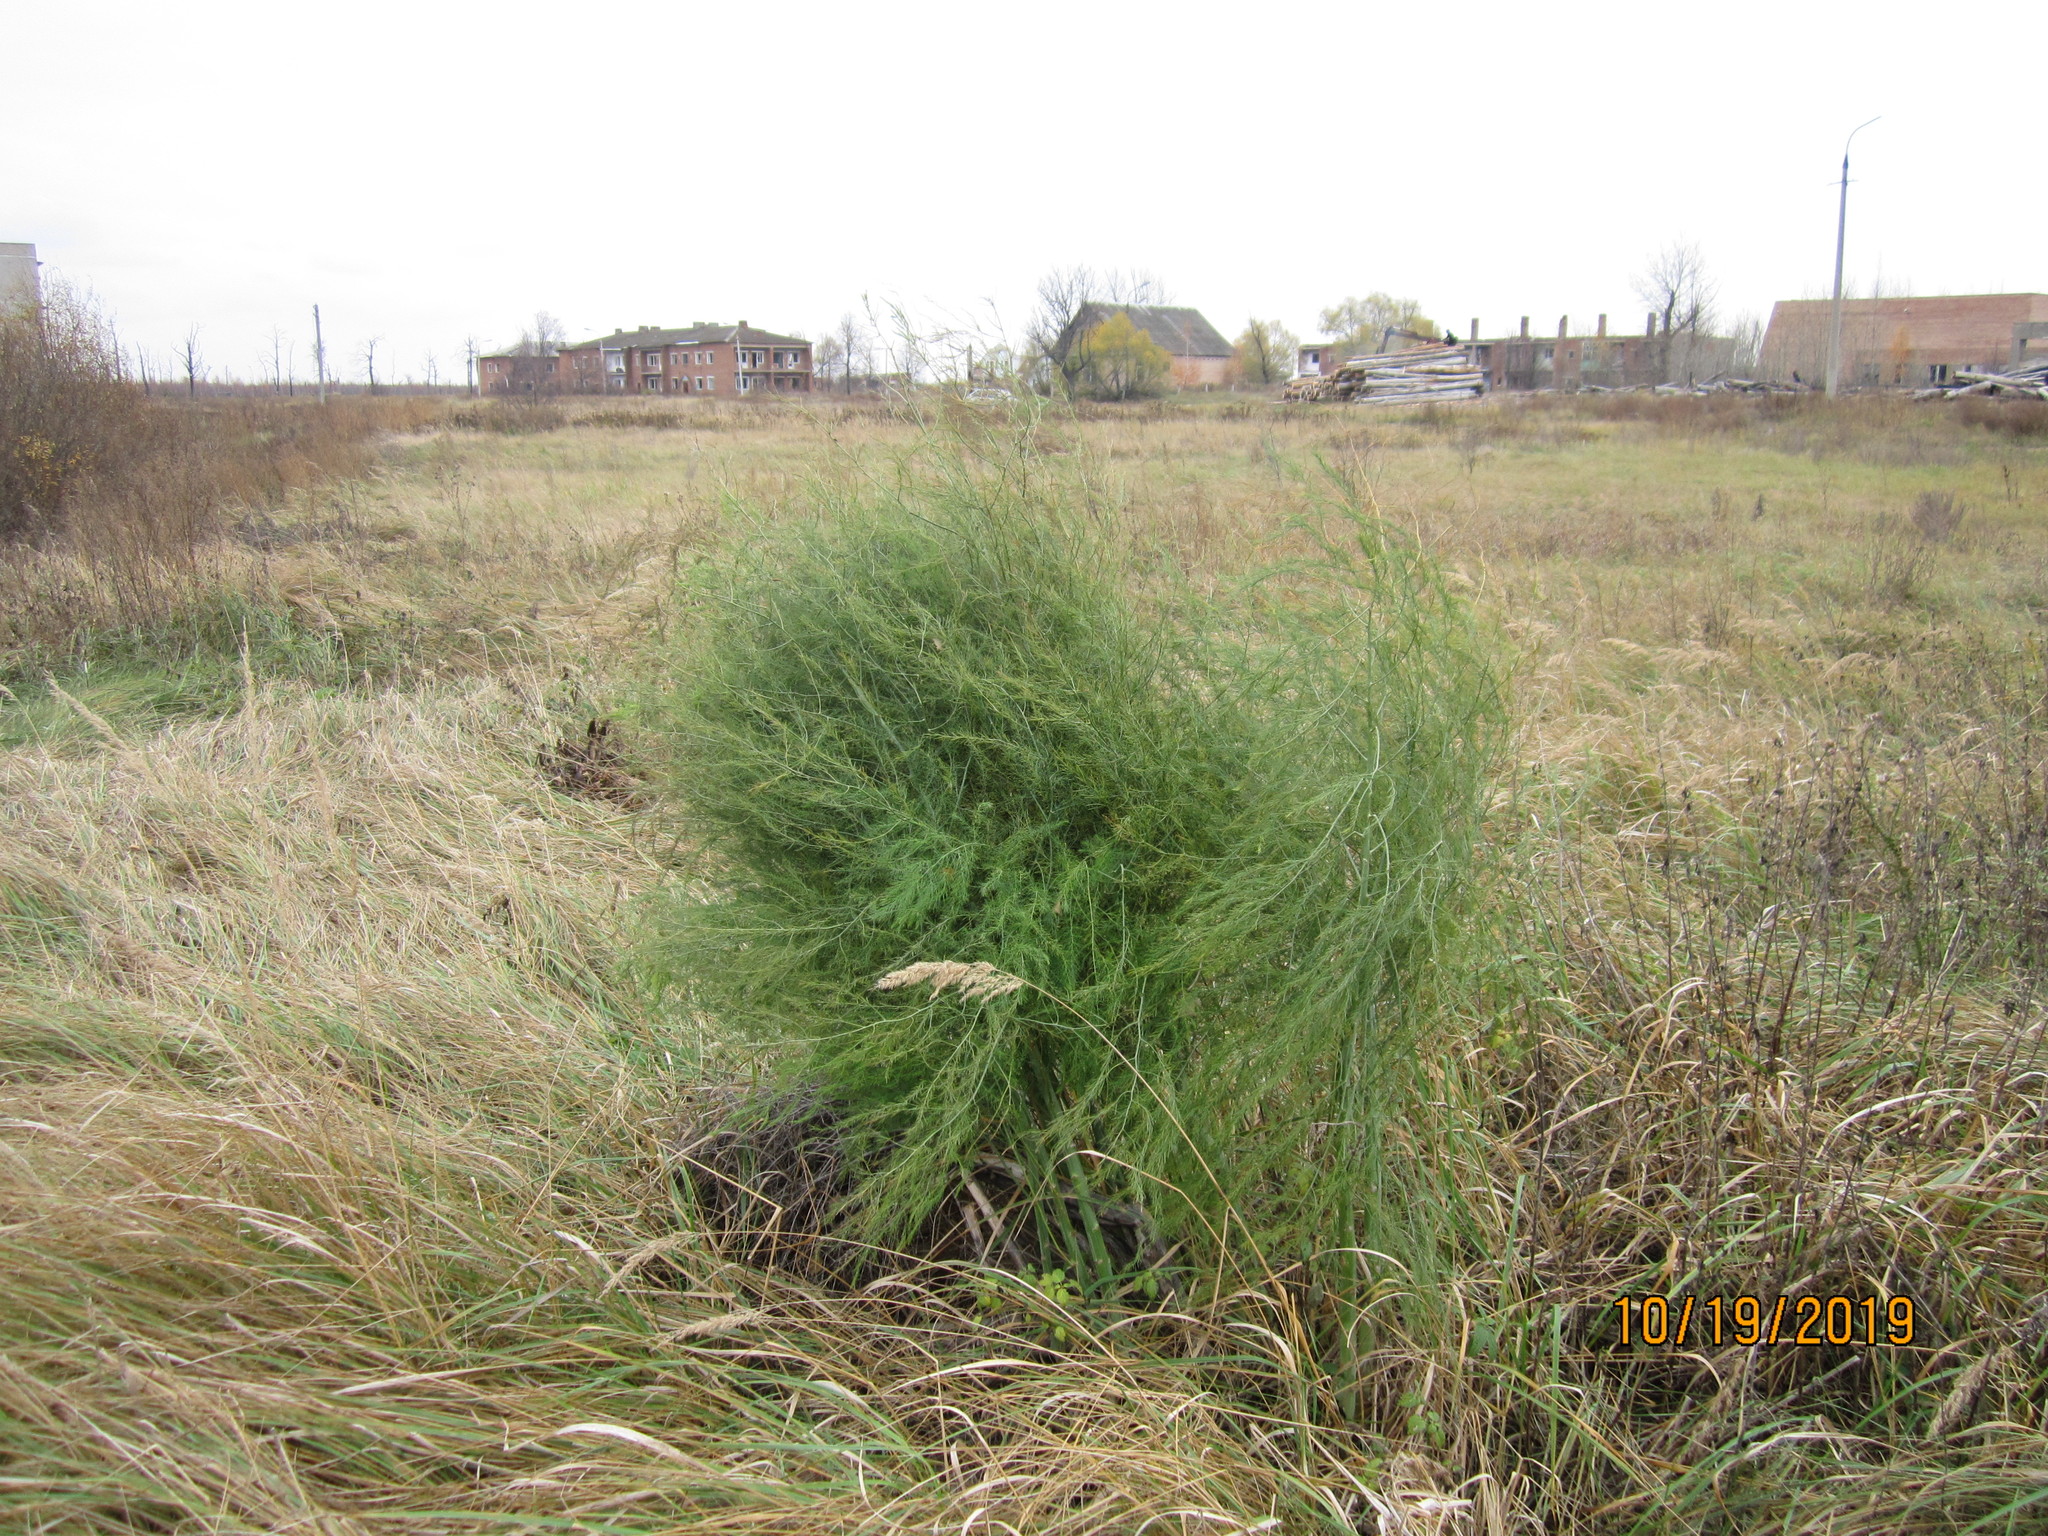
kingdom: Plantae
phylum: Tracheophyta
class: Liliopsida
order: Asparagales
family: Asparagaceae
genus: Asparagus
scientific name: Asparagus officinalis
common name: Garden asparagus
